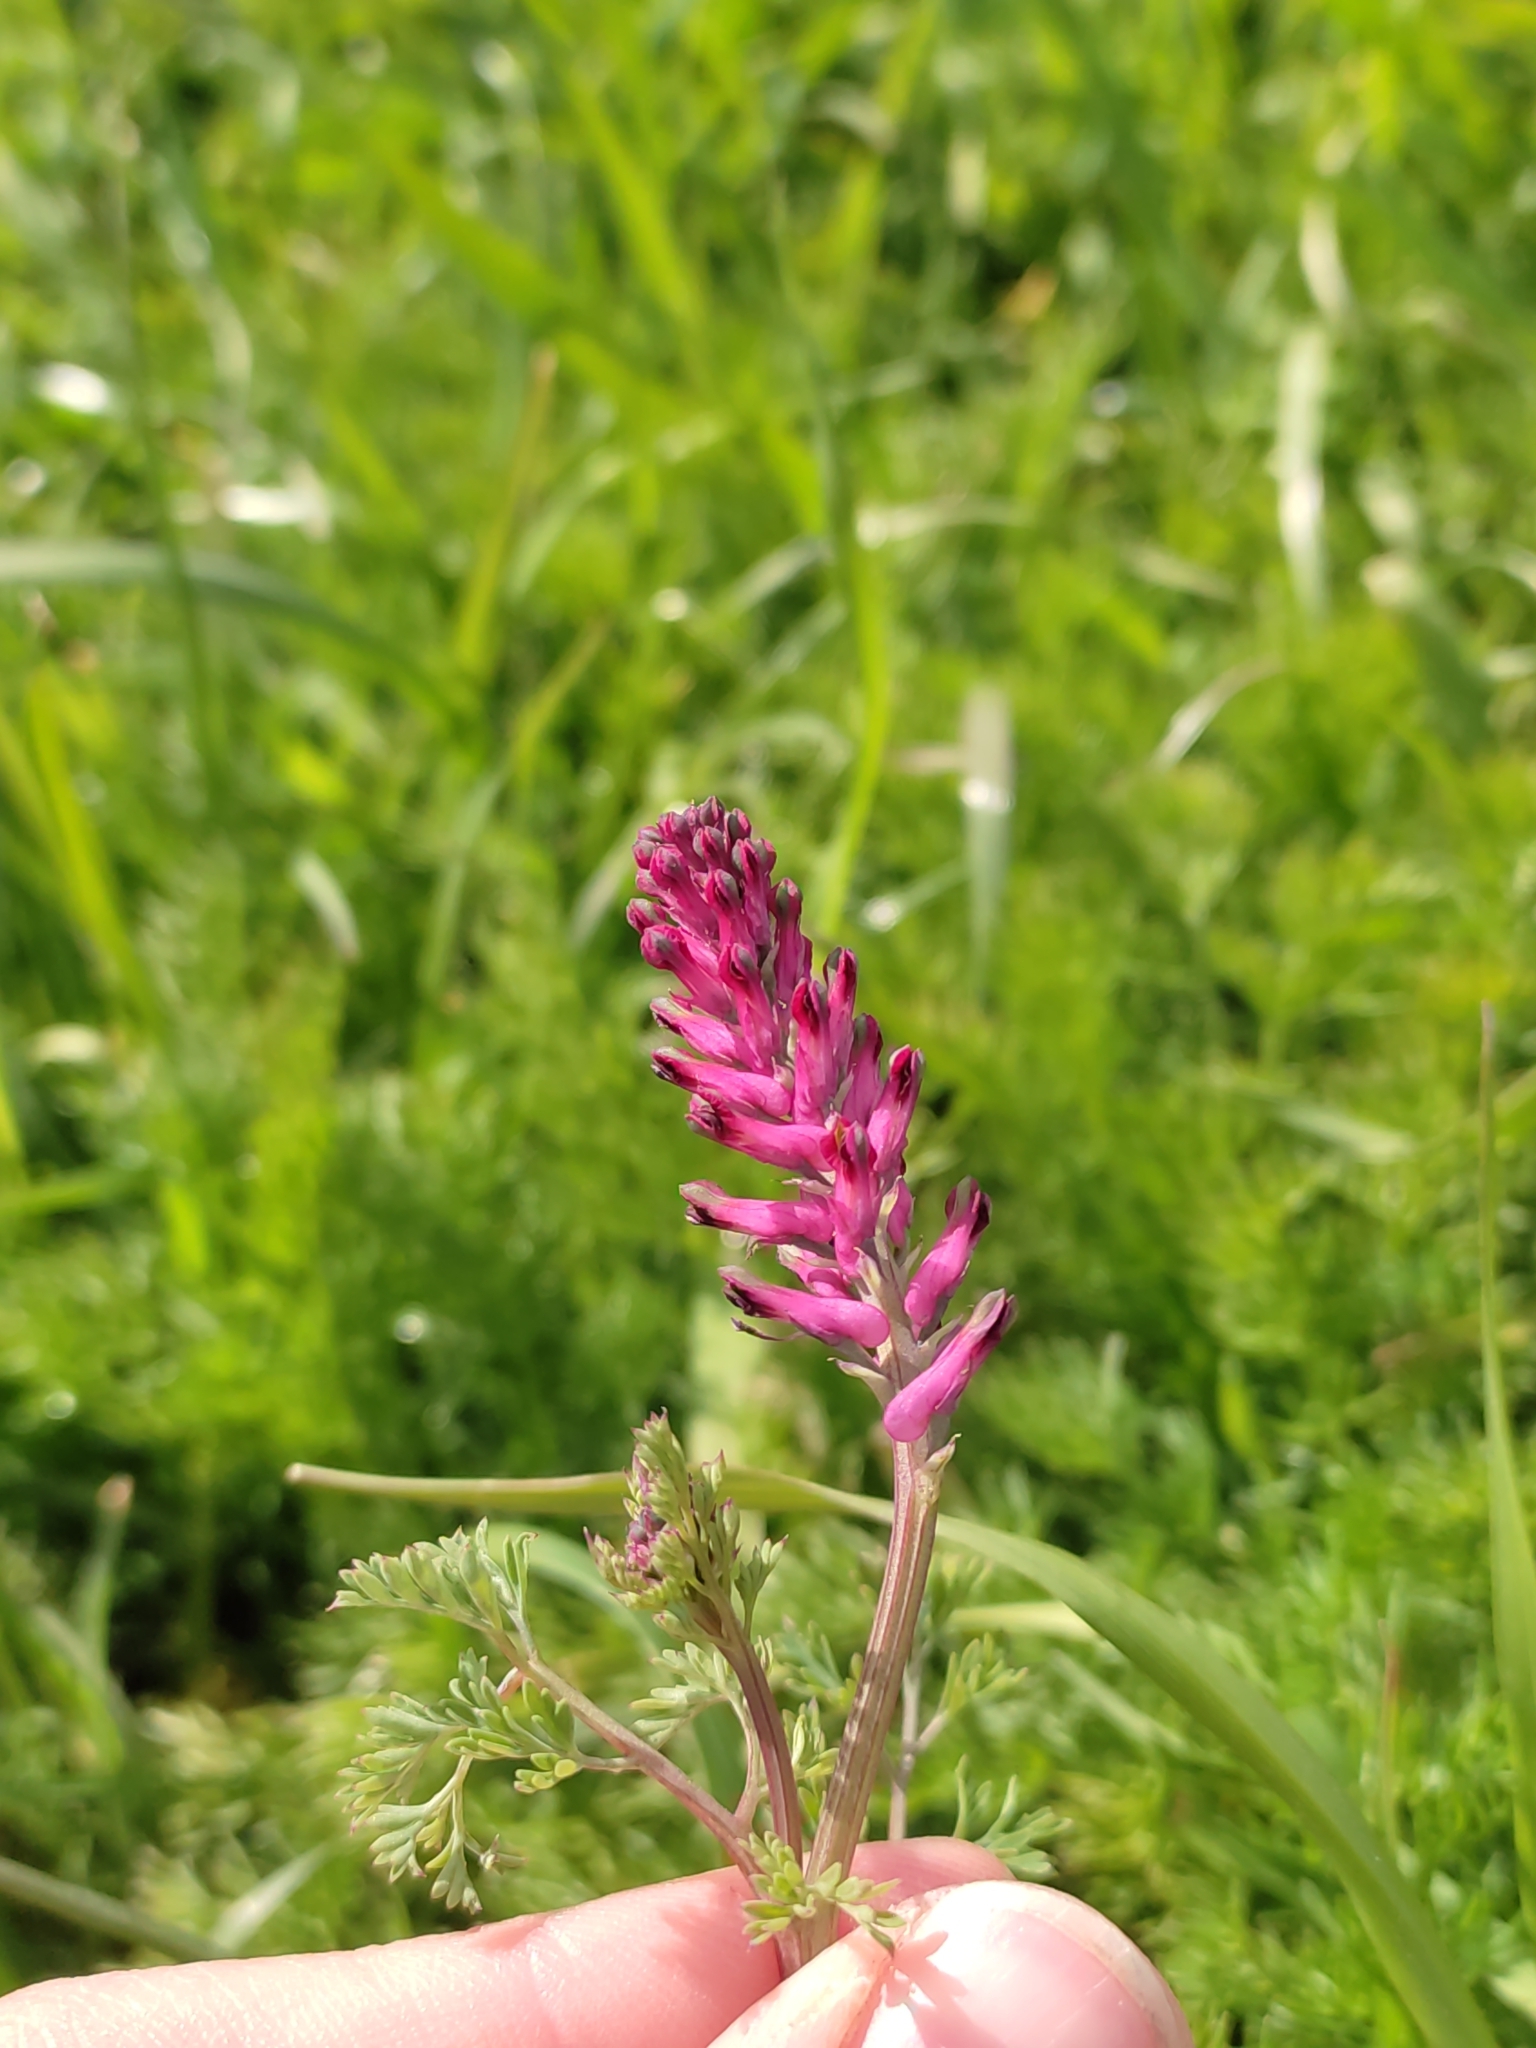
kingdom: Plantae
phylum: Tracheophyta
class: Magnoliopsida
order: Ranunculales
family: Papaveraceae
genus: Fumaria
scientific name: Fumaria officinalis
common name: Common fumitory
